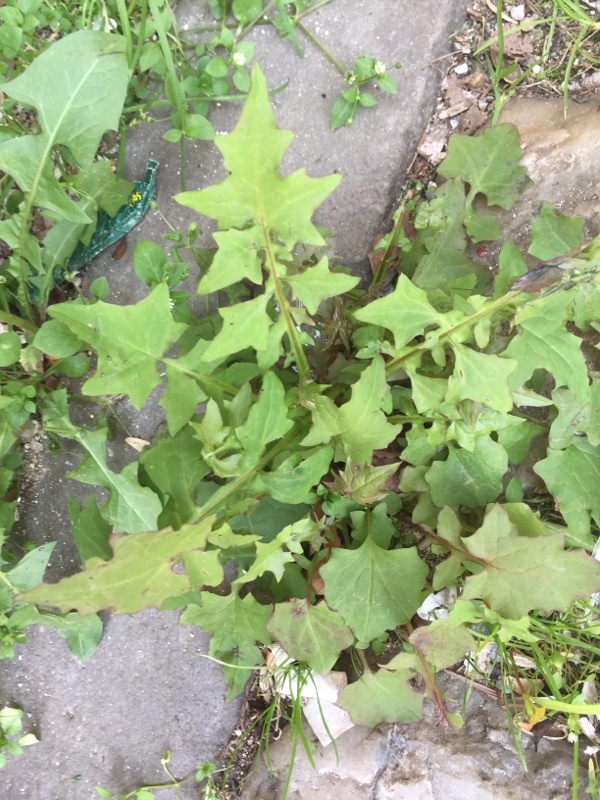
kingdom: Plantae
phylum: Tracheophyta
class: Magnoliopsida
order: Asterales
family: Asteraceae
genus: Mycelis
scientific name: Mycelis muralis
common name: Wall lettuce
